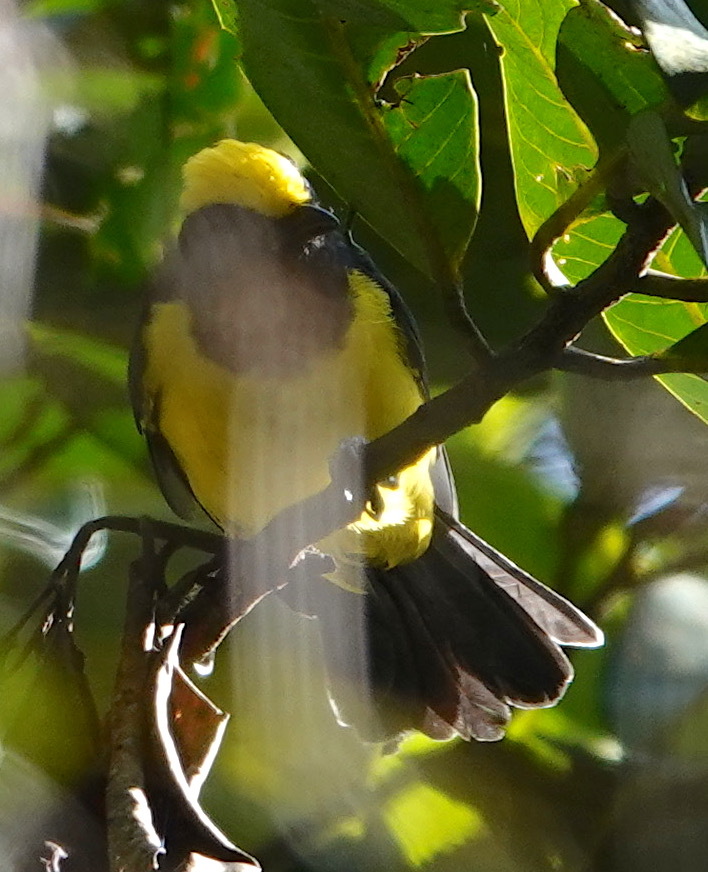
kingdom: Animalia
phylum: Chordata
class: Aves
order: Passeriformes
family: Paridae
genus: Melanochlora
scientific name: Melanochlora sultanea
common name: Sultan tit
